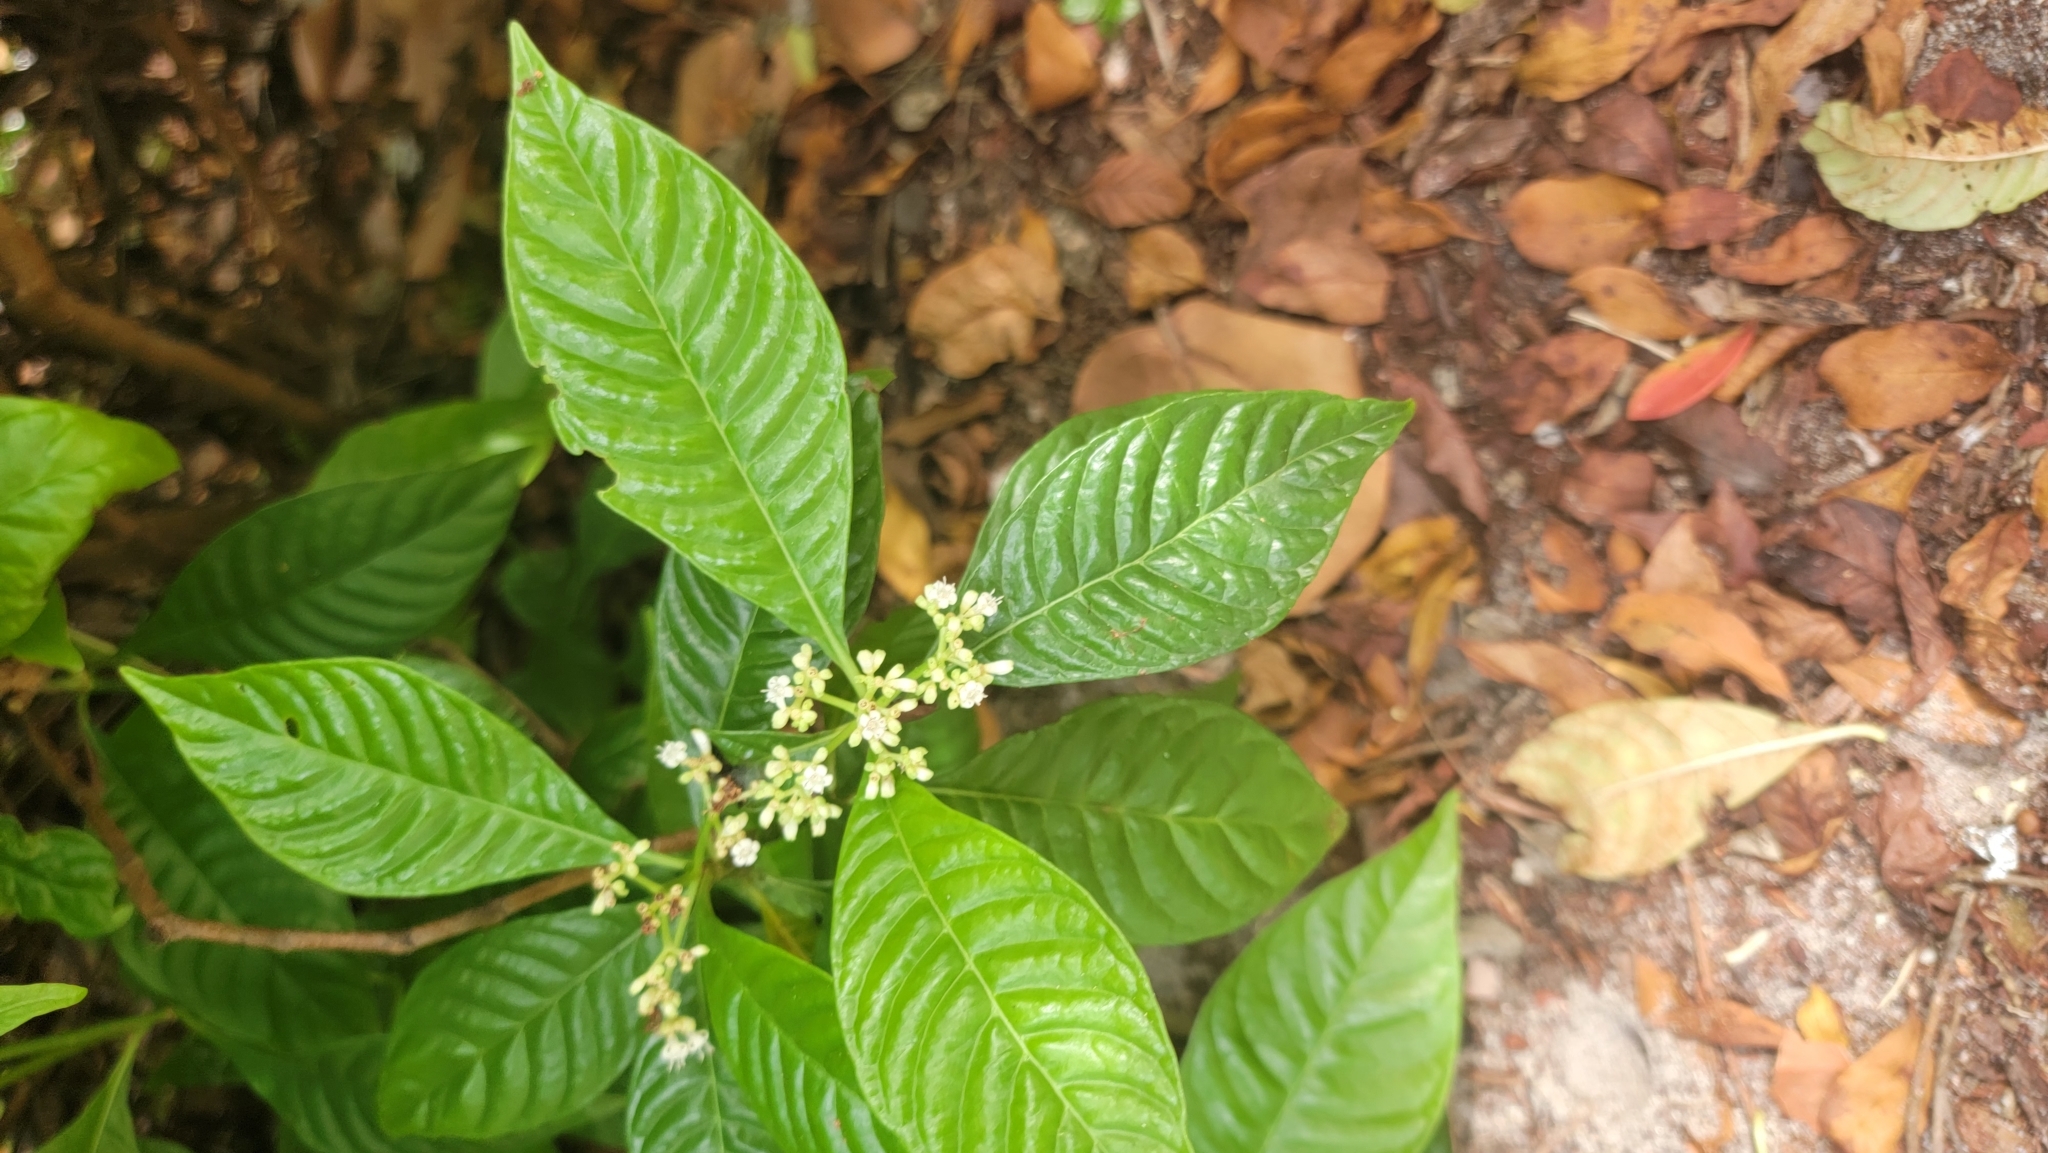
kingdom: Plantae
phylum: Tracheophyta
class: Magnoliopsida
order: Gentianales
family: Rubiaceae
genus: Psychotria
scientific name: Psychotria nervosa
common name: Bastard cankerberry
